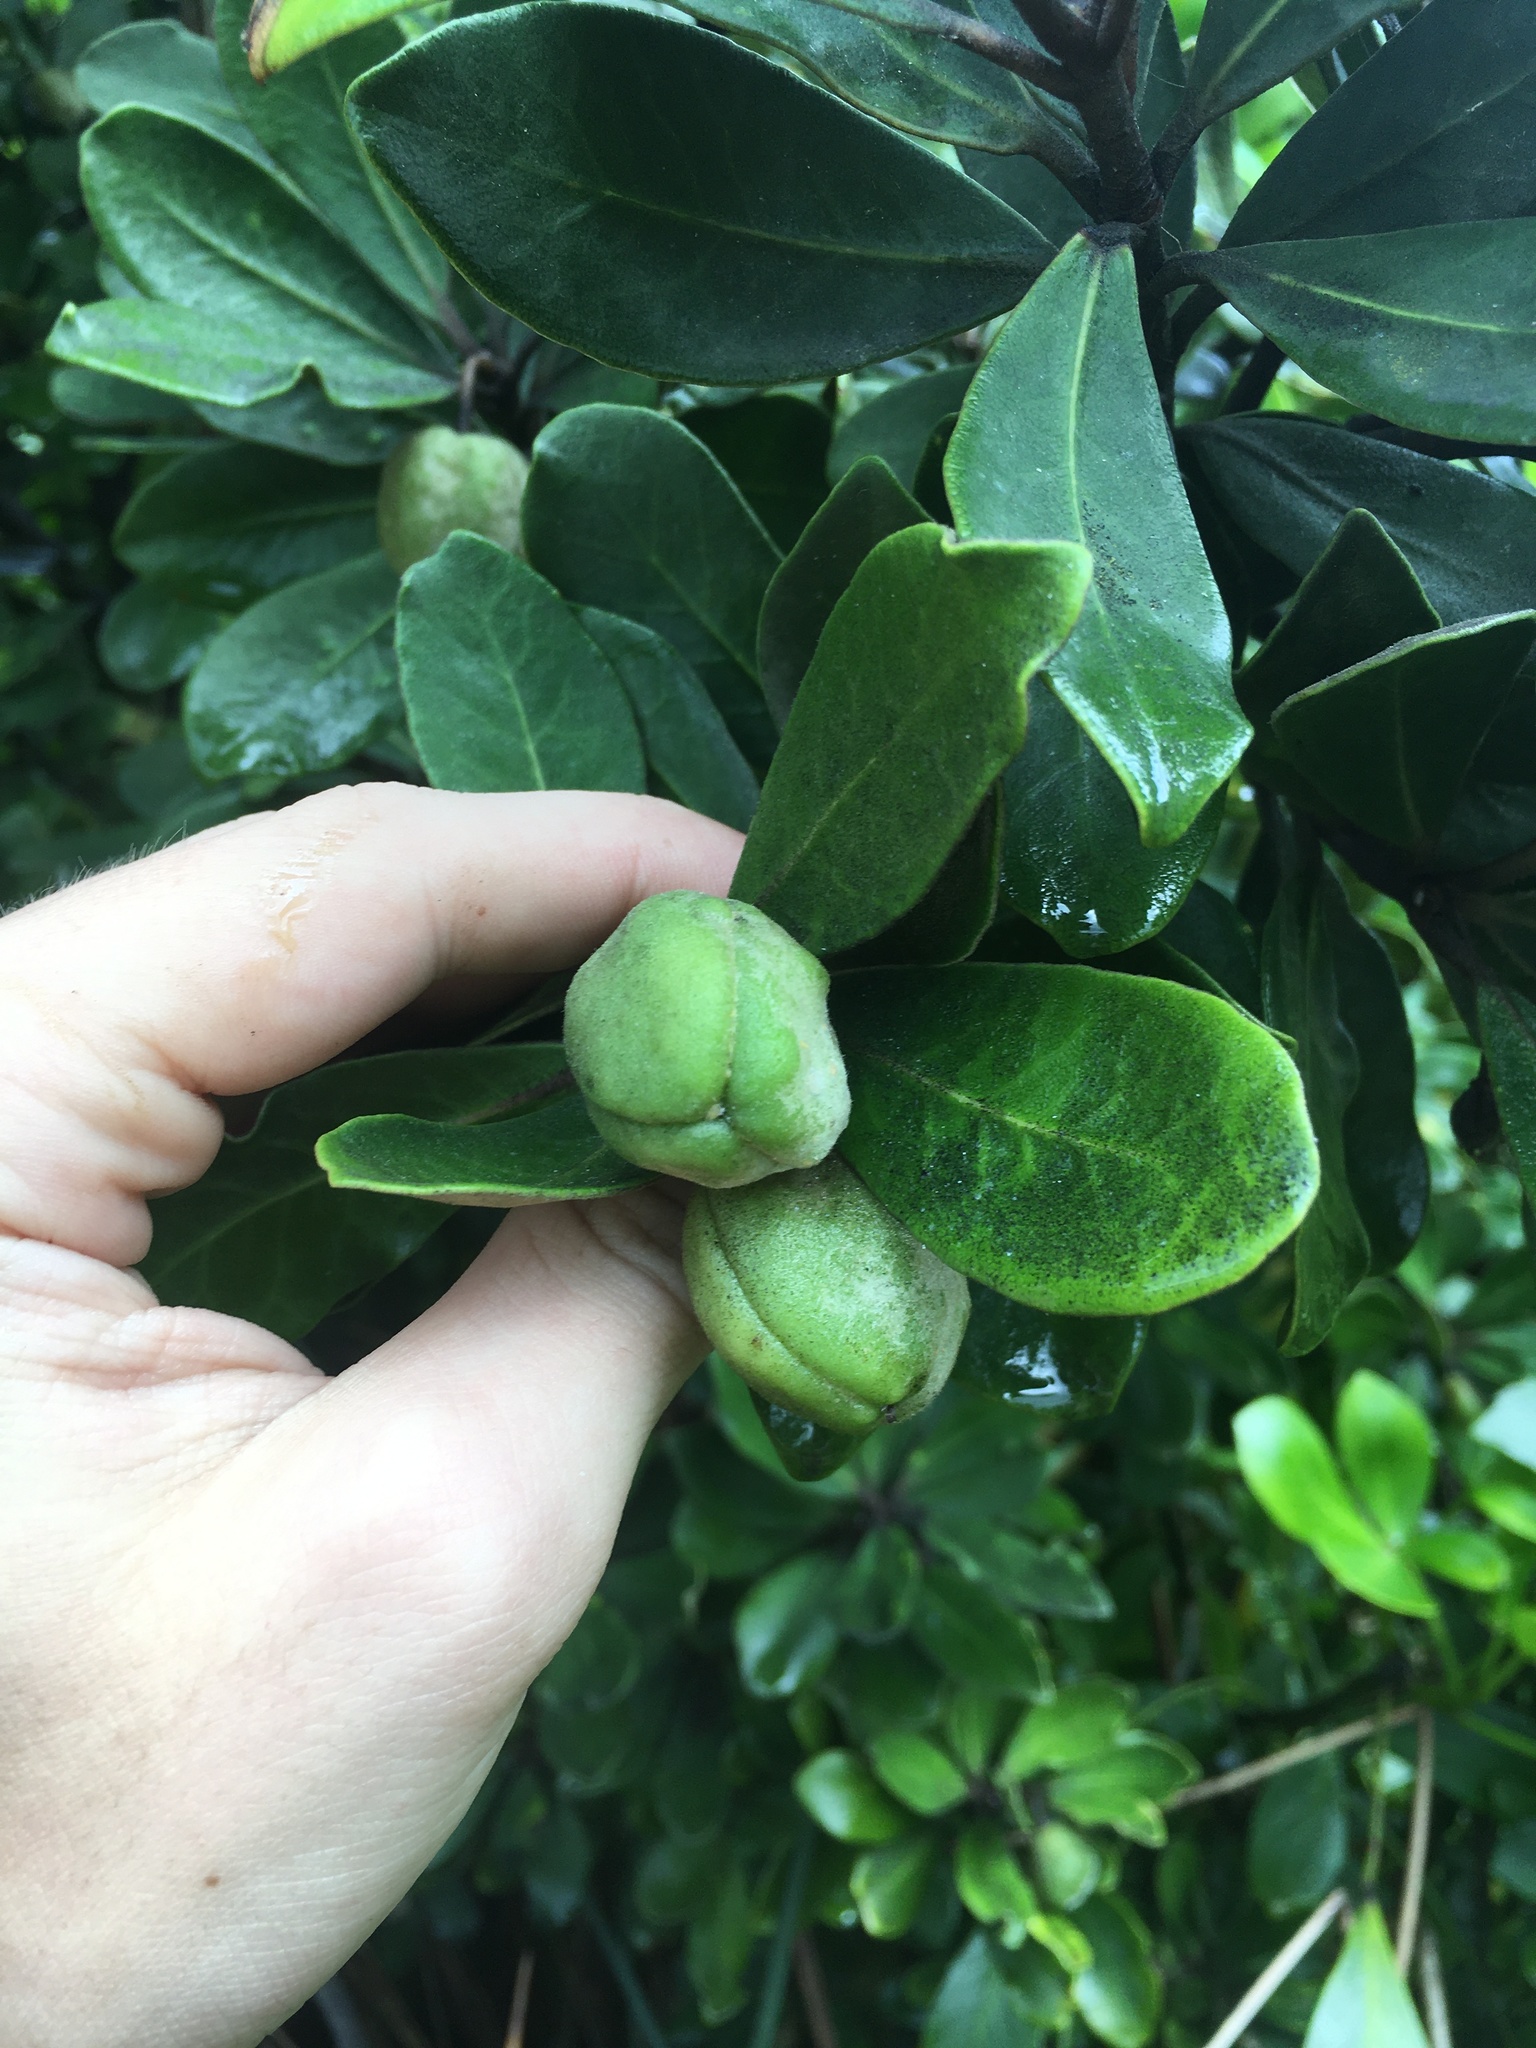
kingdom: Plantae
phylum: Tracheophyta
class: Magnoliopsida
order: Apiales
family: Pittosporaceae
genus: Pittosporum
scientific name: Pittosporum crassifolium
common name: Karo
